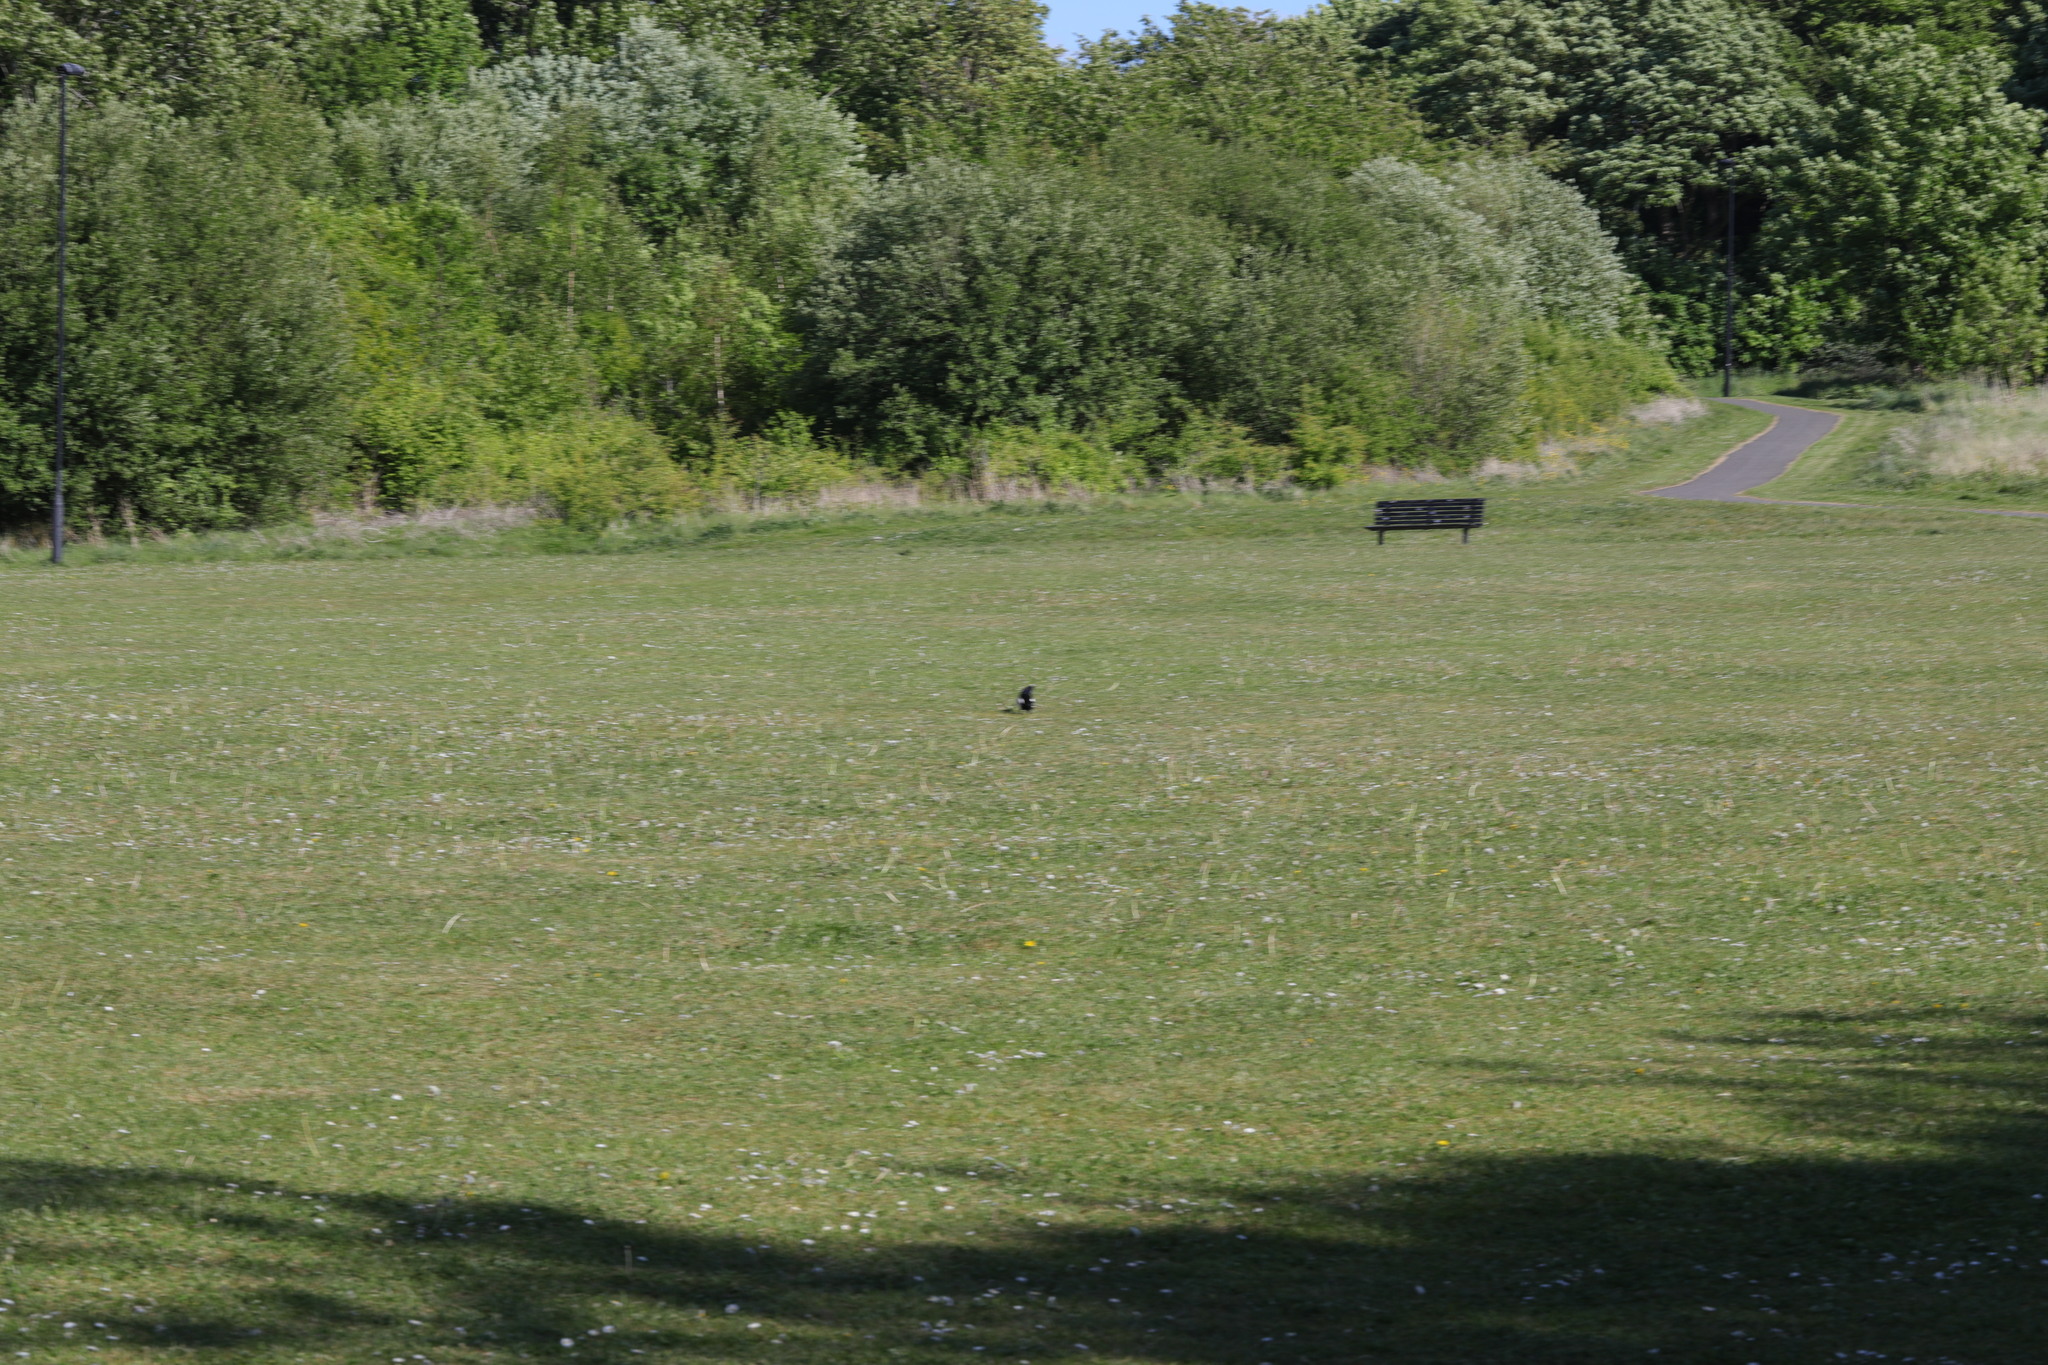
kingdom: Animalia
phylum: Chordata
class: Aves
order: Passeriformes
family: Corvidae
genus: Pica
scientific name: Pica pica
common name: Eurasian magpie
